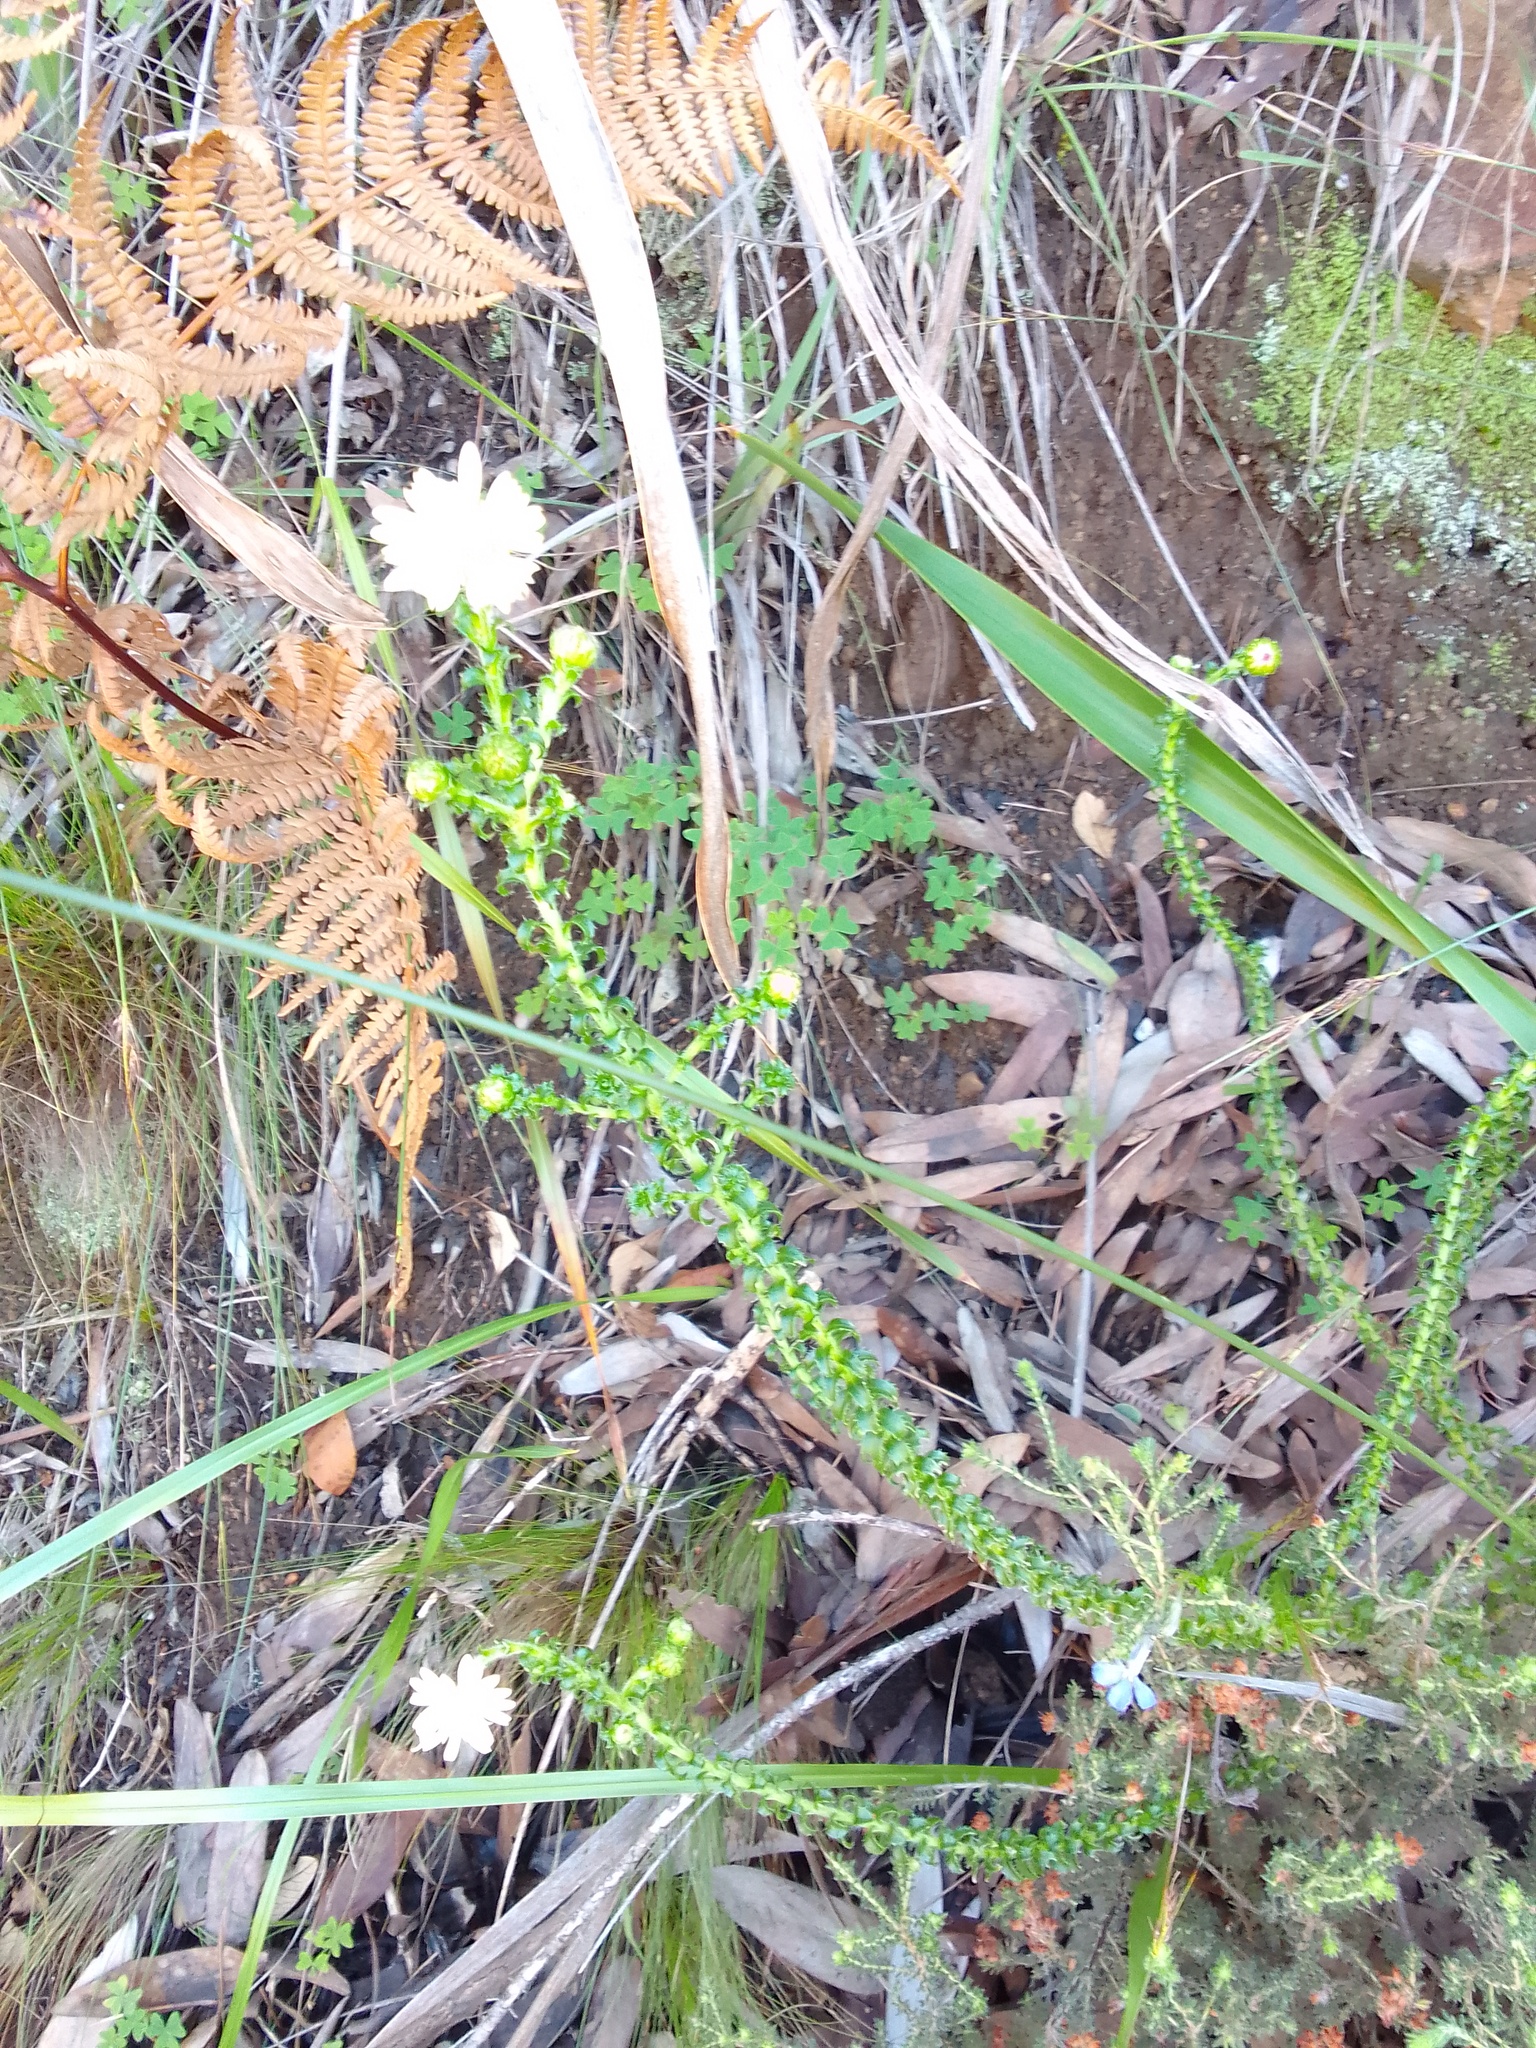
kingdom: Plantae
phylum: Tracheophyta
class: Magnoliopsida
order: Asterales
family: Asteraceae
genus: Polyarrhena
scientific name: Polyarrhena reflexa
